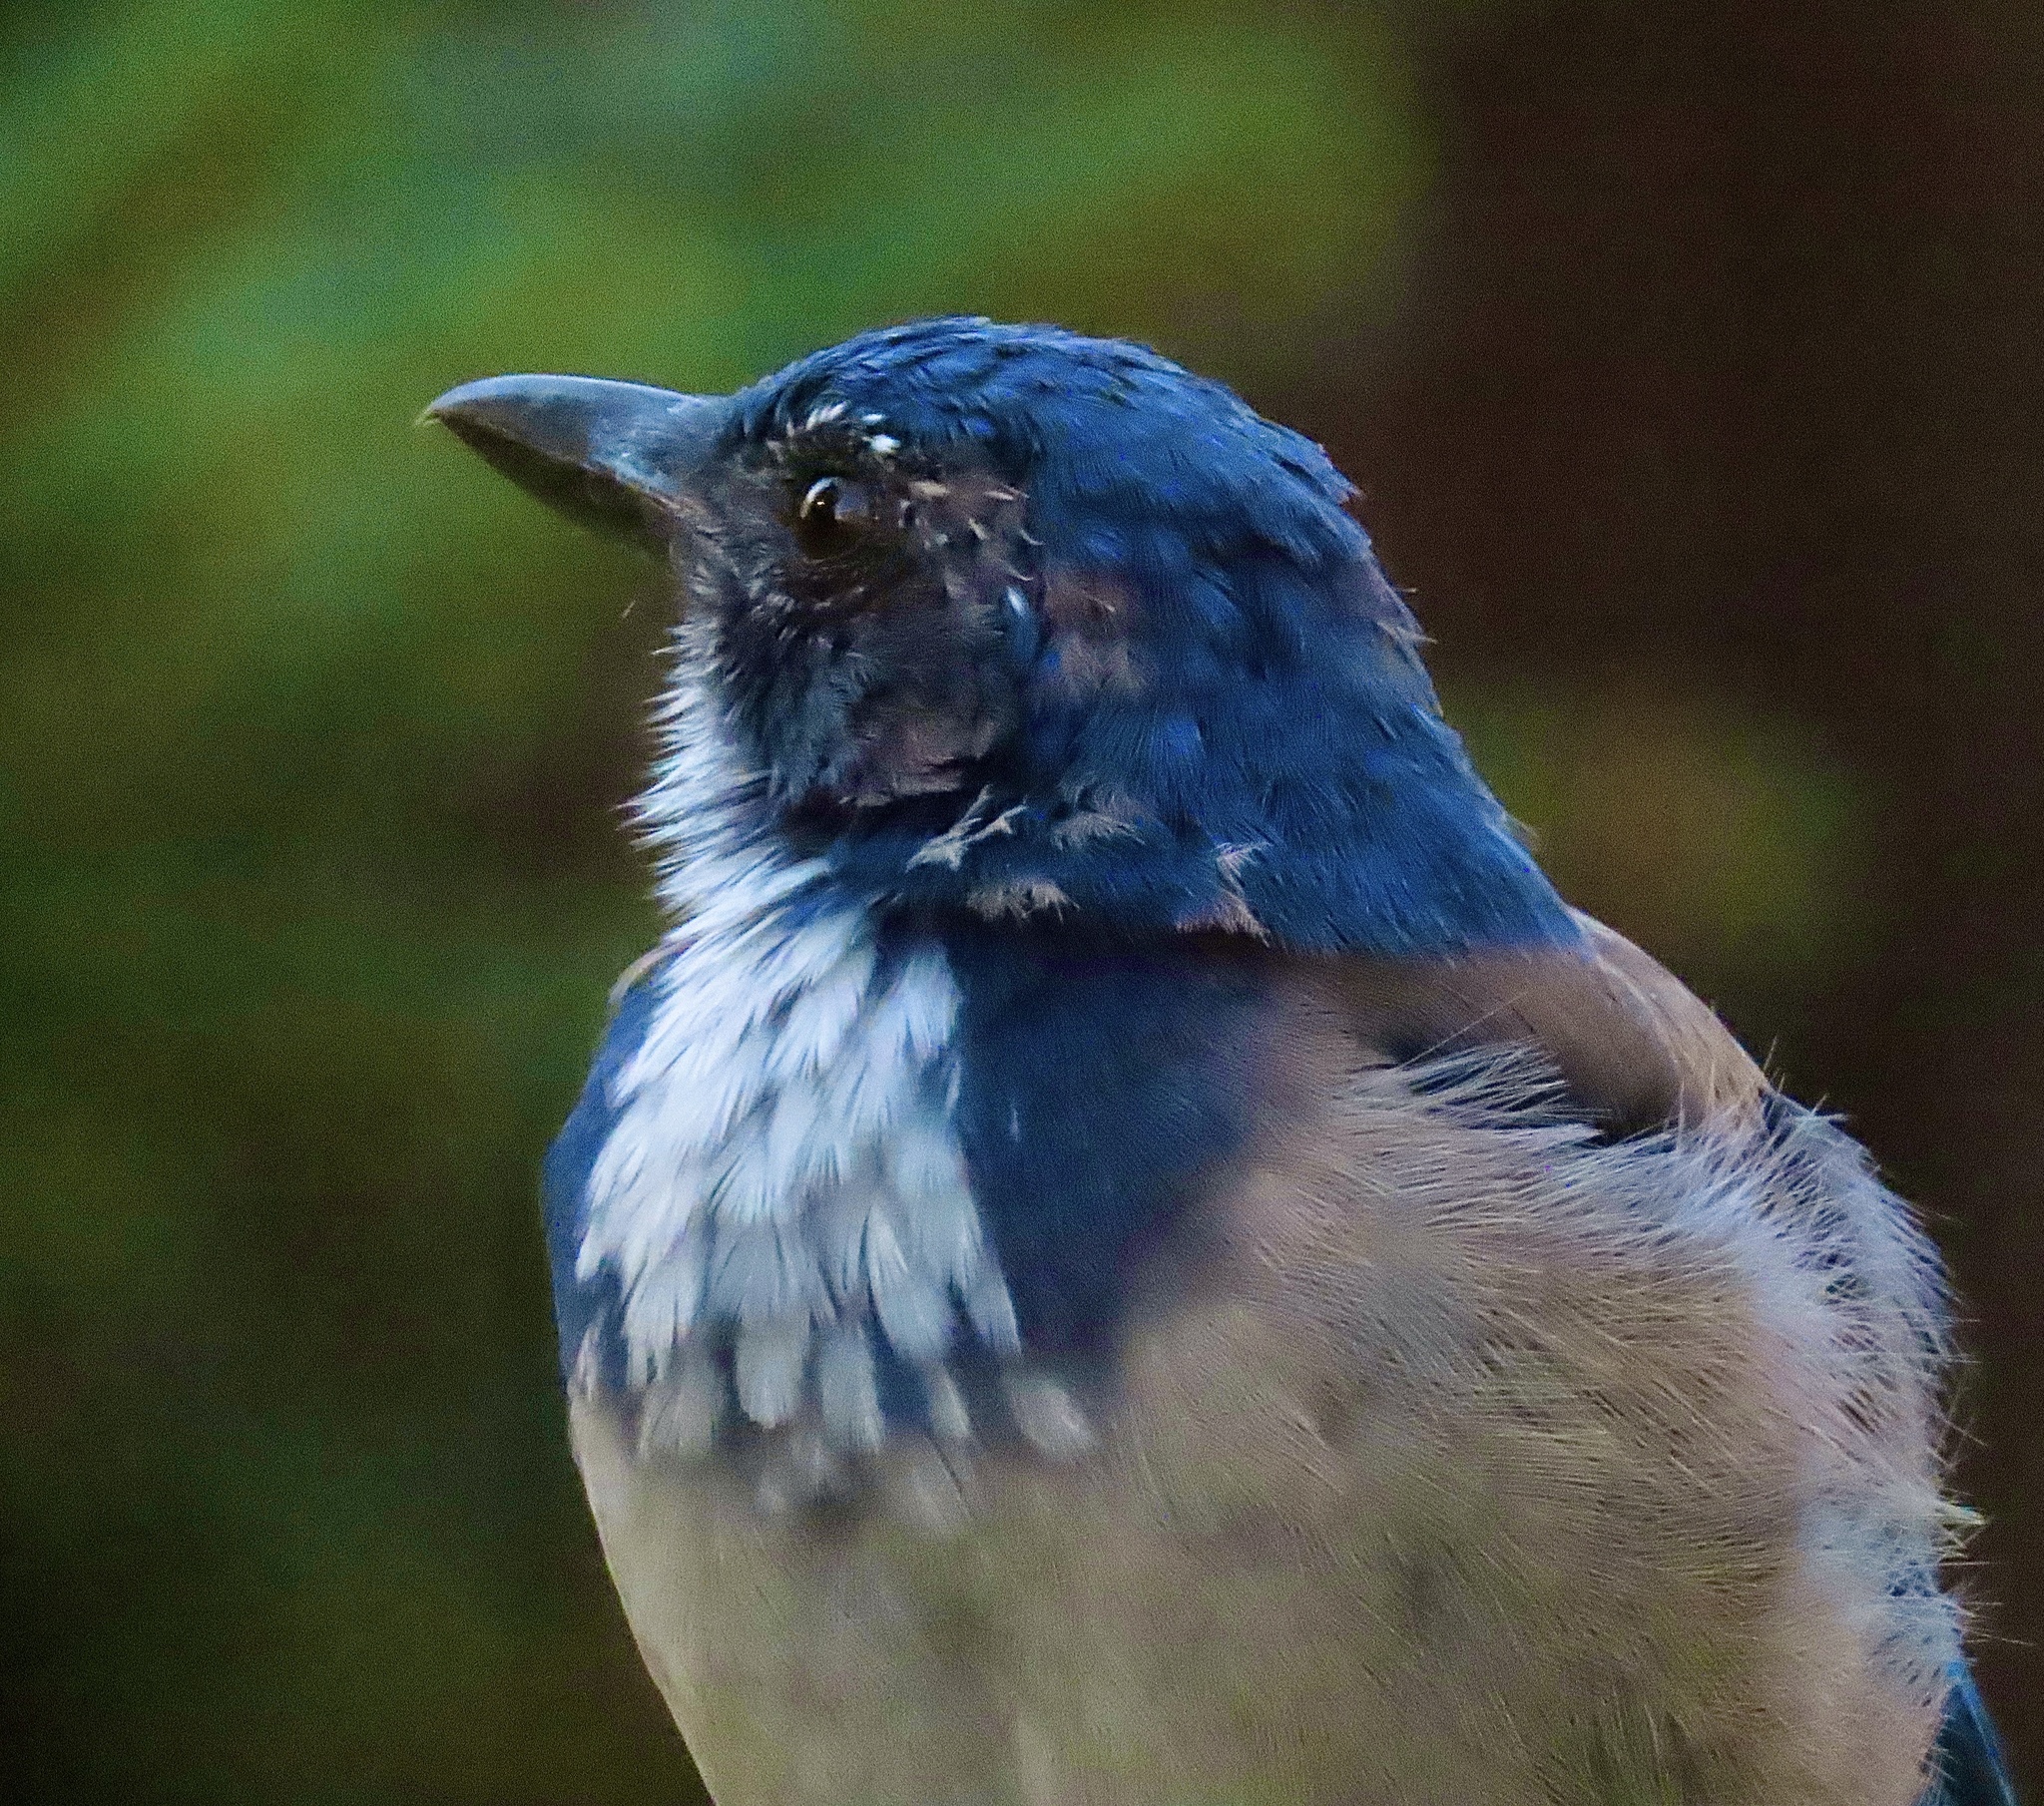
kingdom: Animalia
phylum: Chordata
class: Aves
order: Passeriformes
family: Corvidae
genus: Aphelocoma
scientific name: Aphelocoma californica
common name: California scrub-jay
